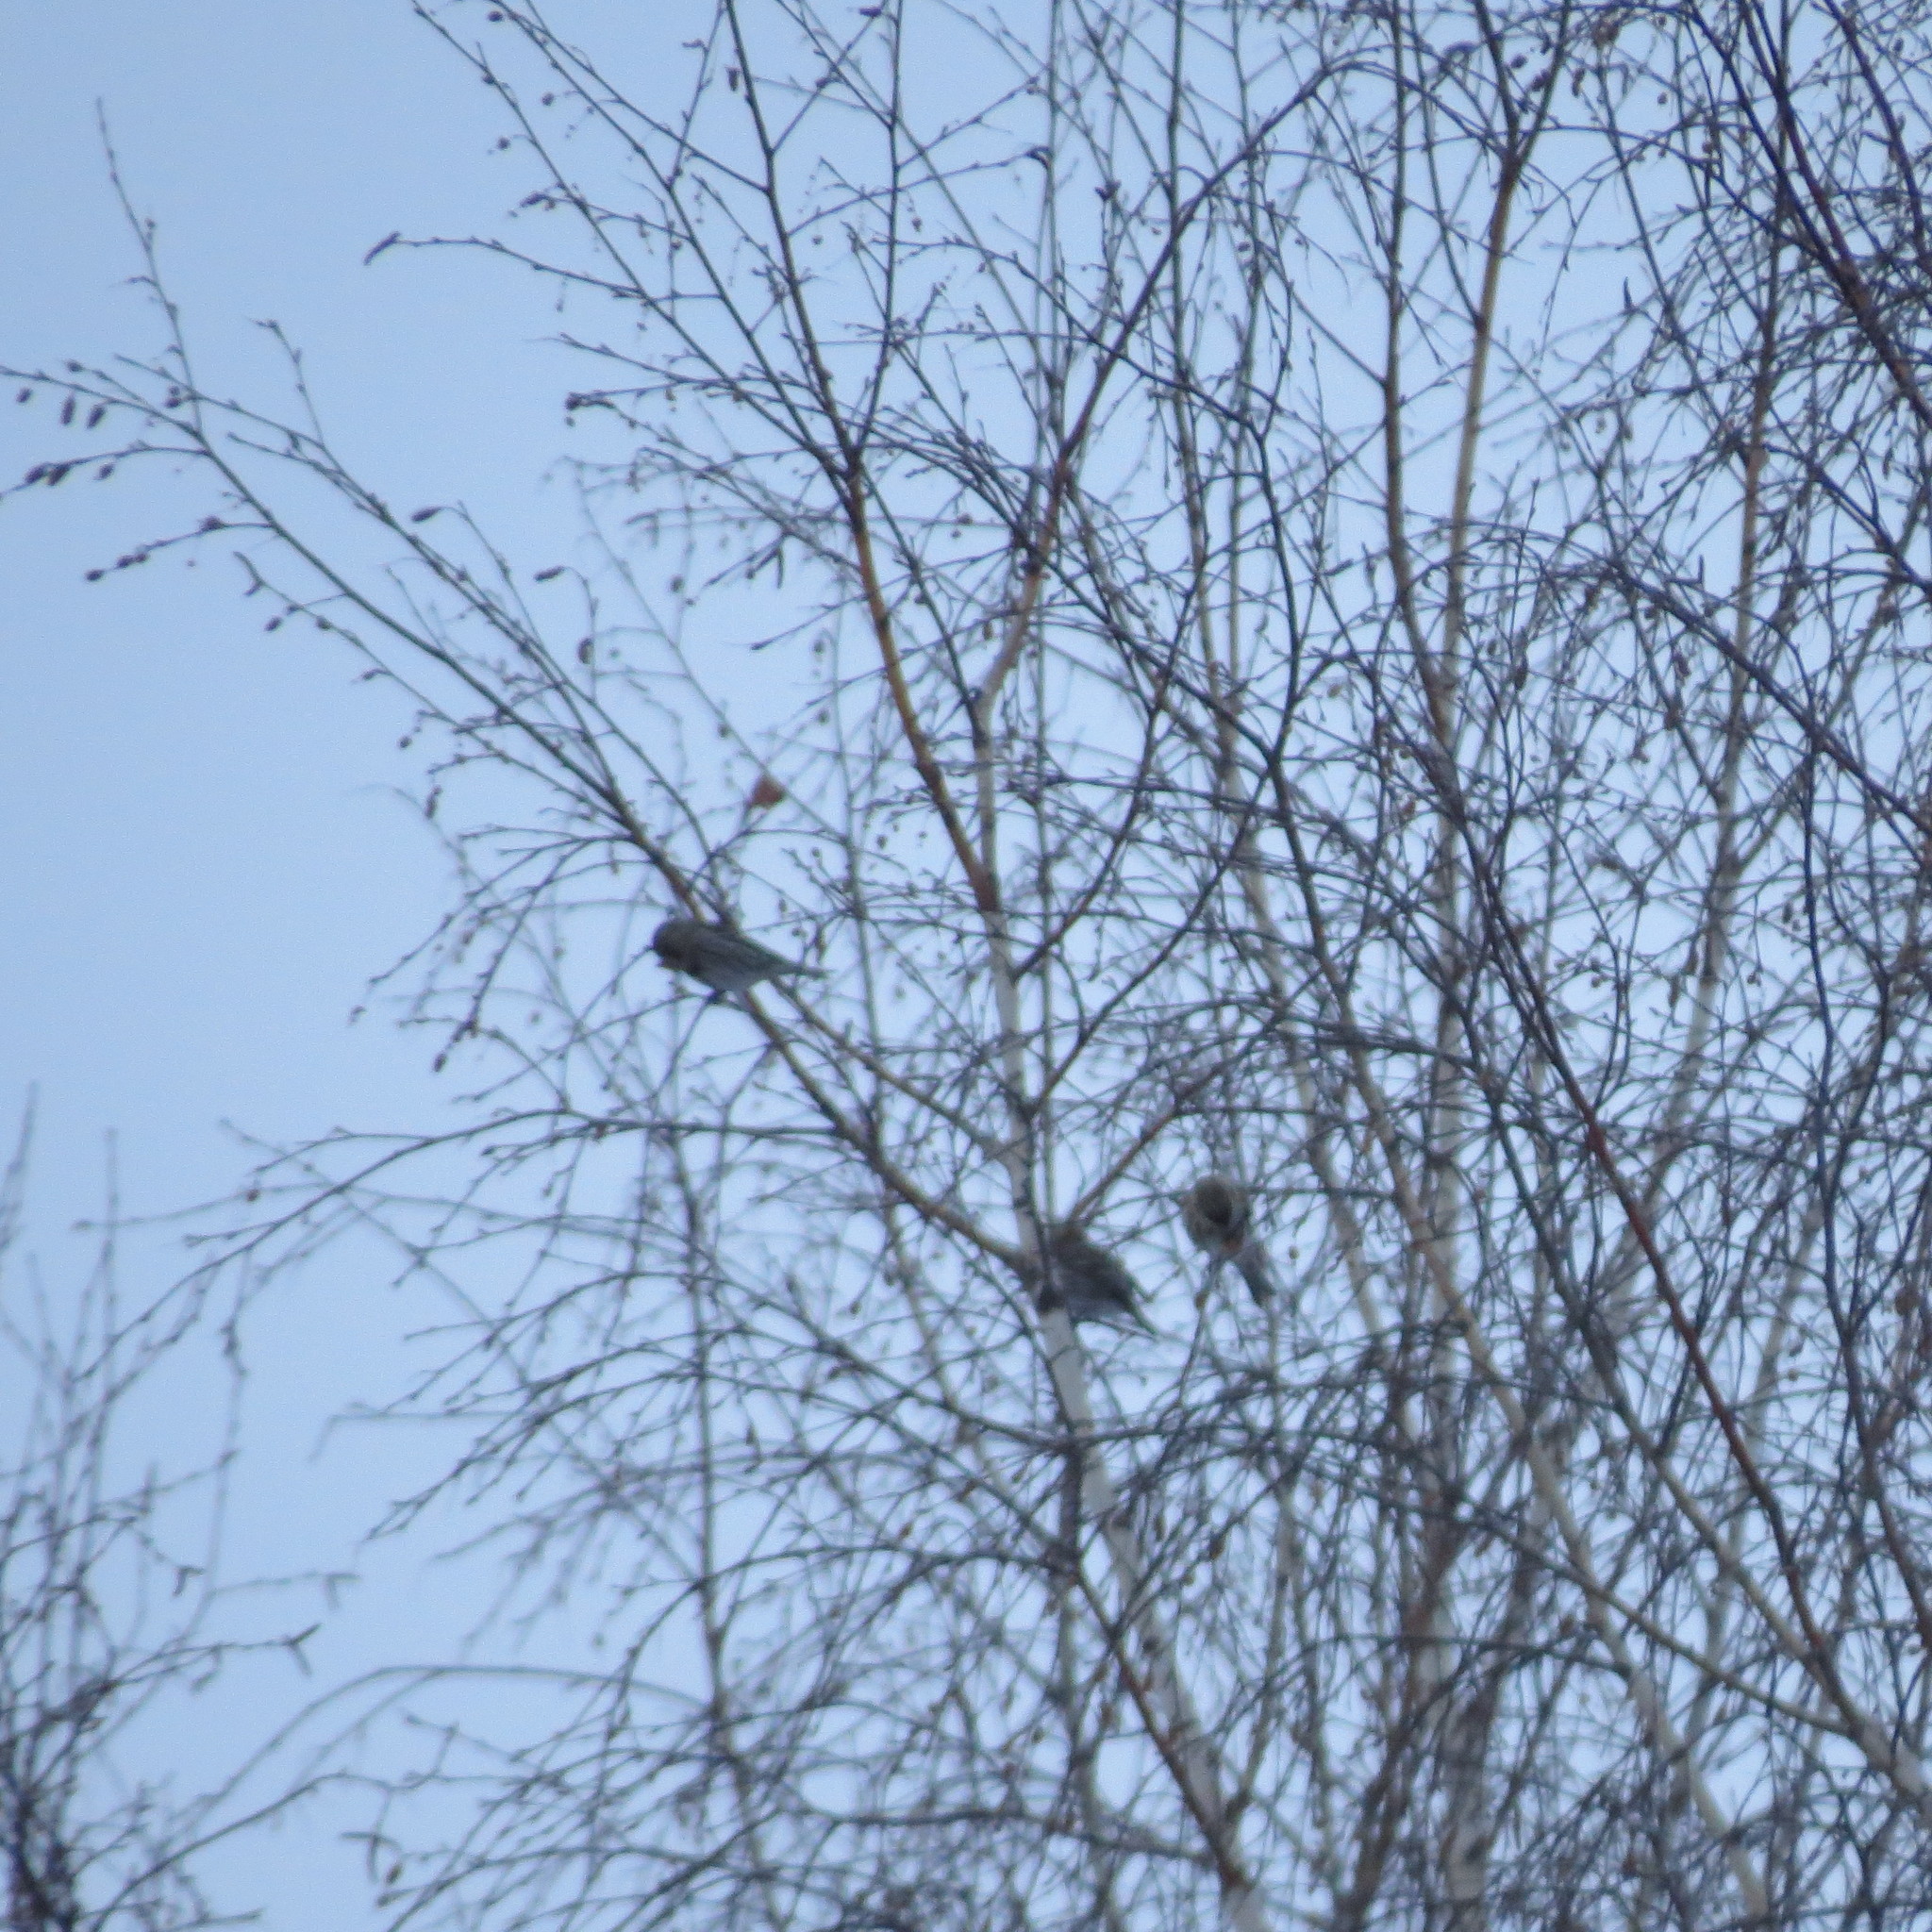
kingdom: Animalia
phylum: Chordata
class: Aves
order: Passeriformes
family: Fringillidae
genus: Acanthis
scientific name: Acanthis flammea
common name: Common redpoll
